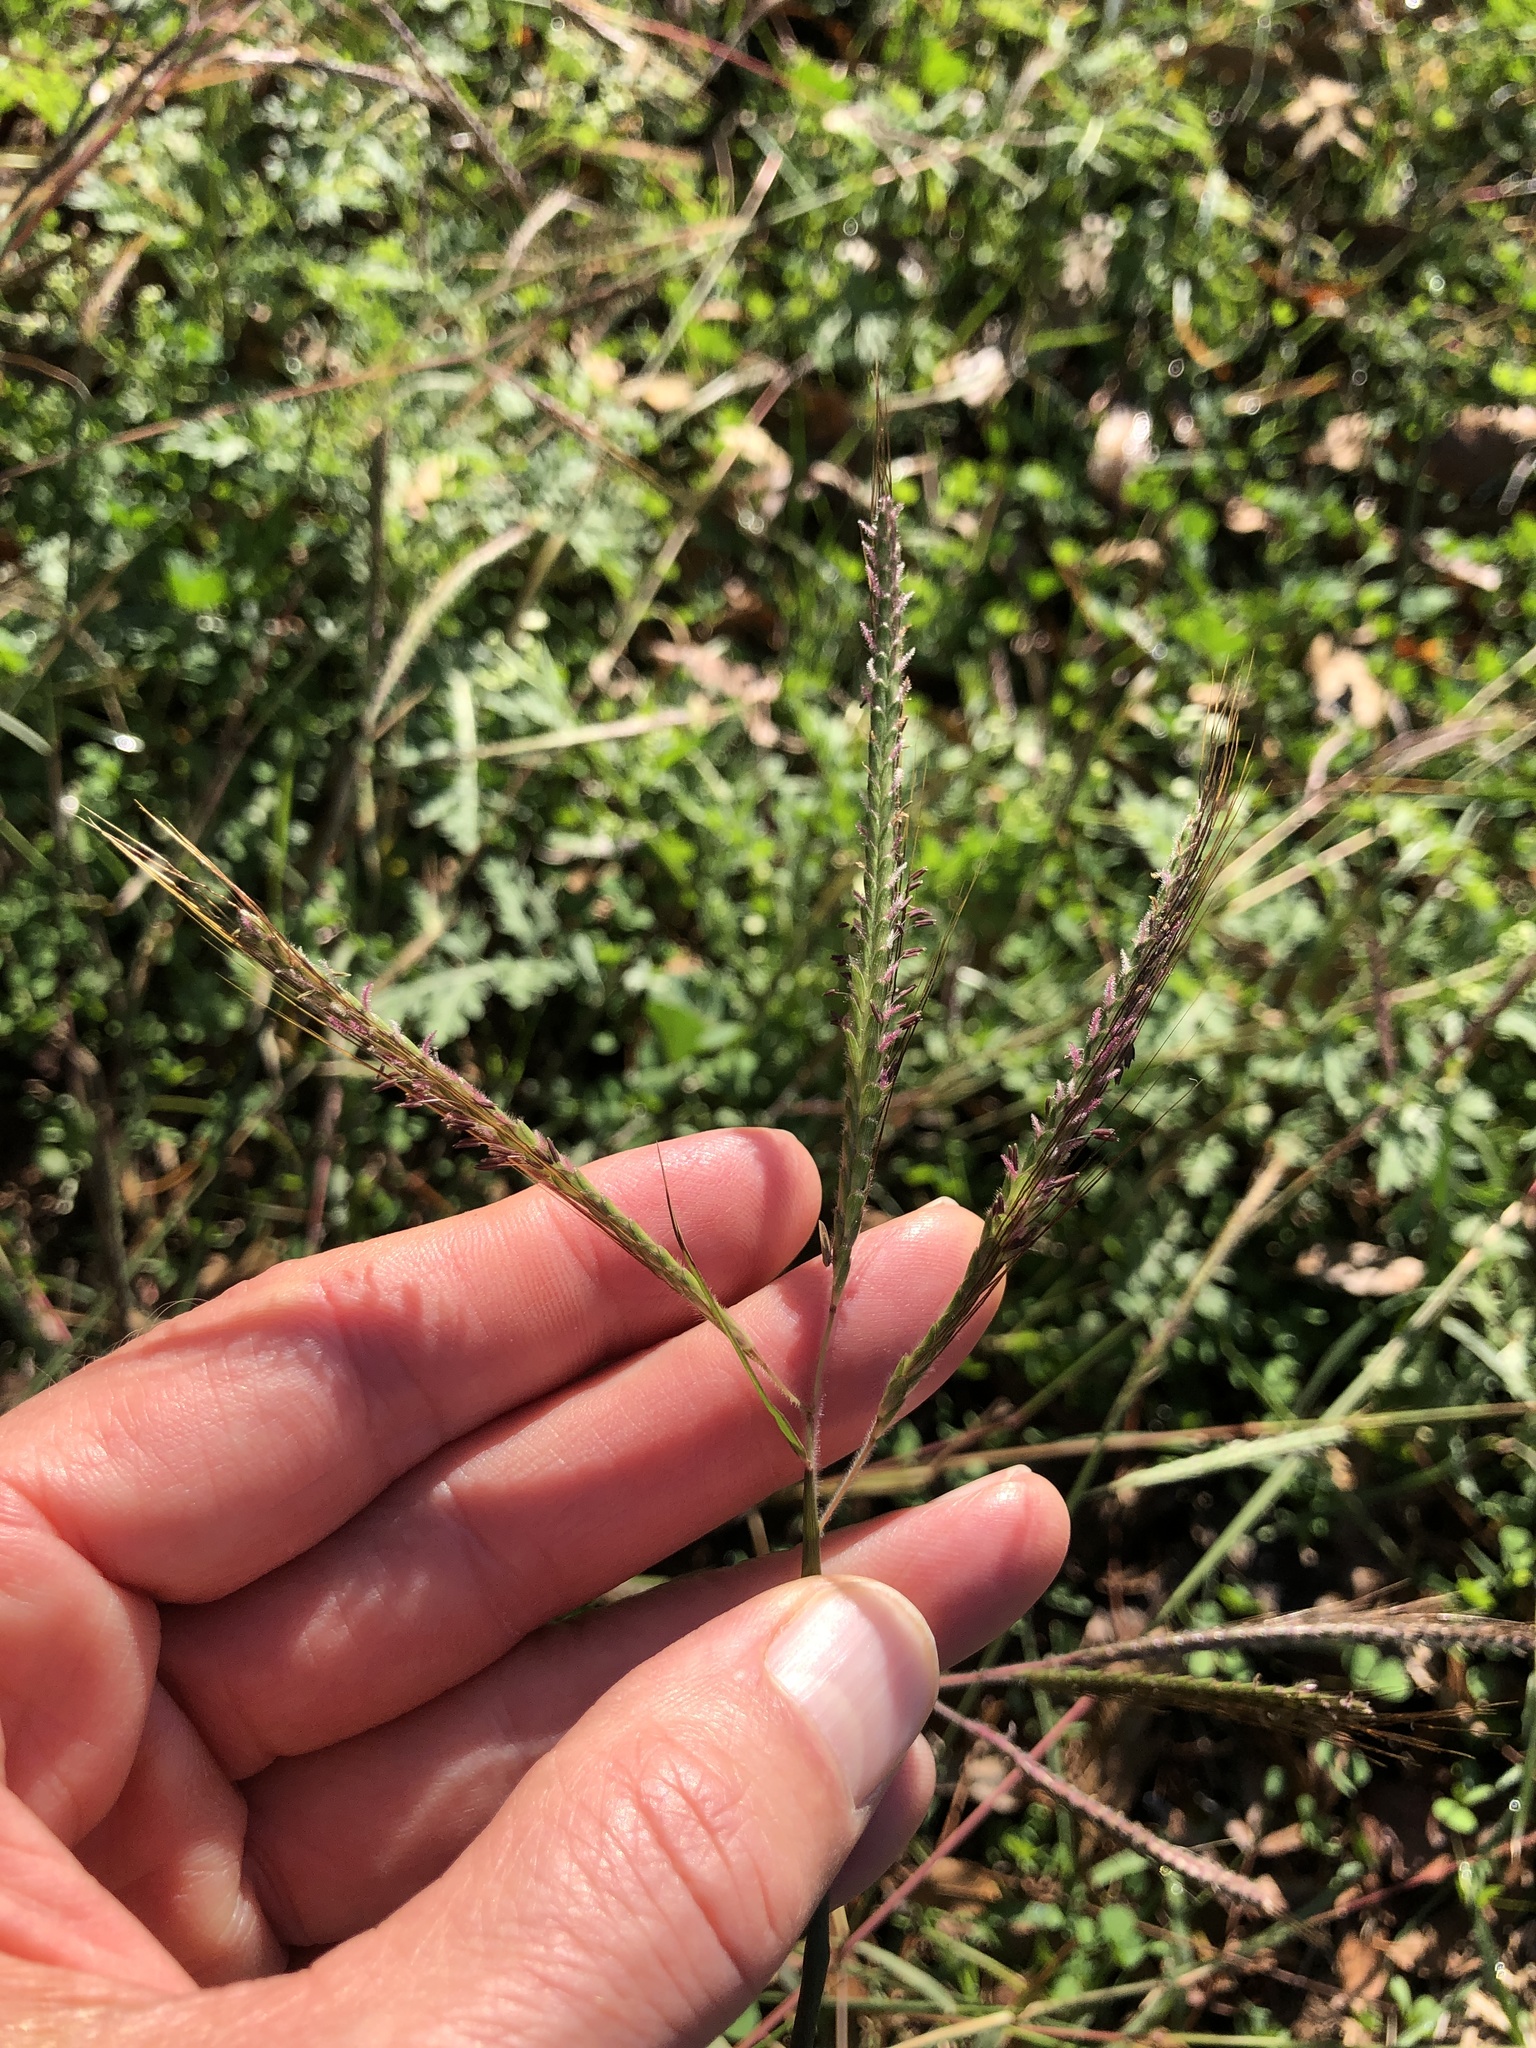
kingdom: Plantae
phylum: Tracheophyta
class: Liliopsida
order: Poales
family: Poaceae
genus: Dichanthium
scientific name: Dichanthium aristatum
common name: Angleton bluestem
